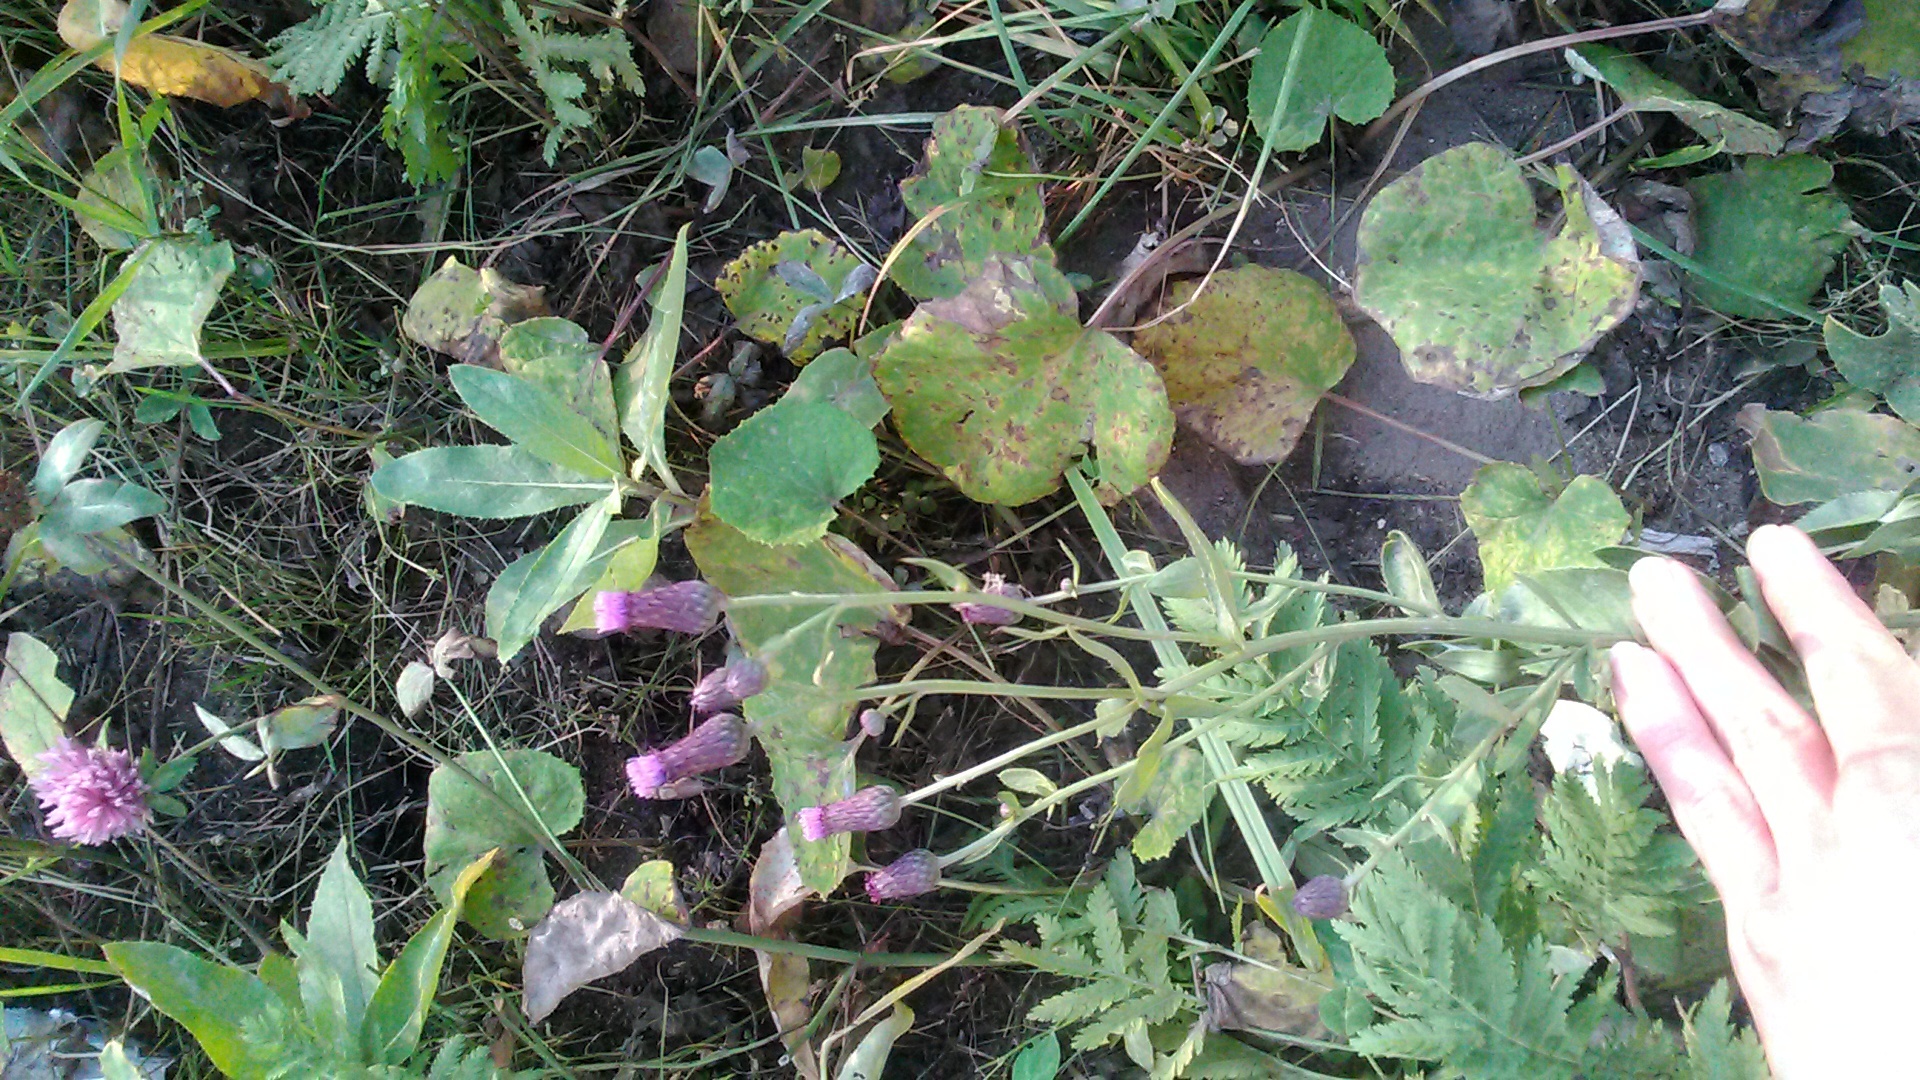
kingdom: Plantae
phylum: Tracheophyta
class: Magnoliopsida
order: Asterales
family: Asteraceae
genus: Cirsium
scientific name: Cirsium arvense
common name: Creeping thistle
